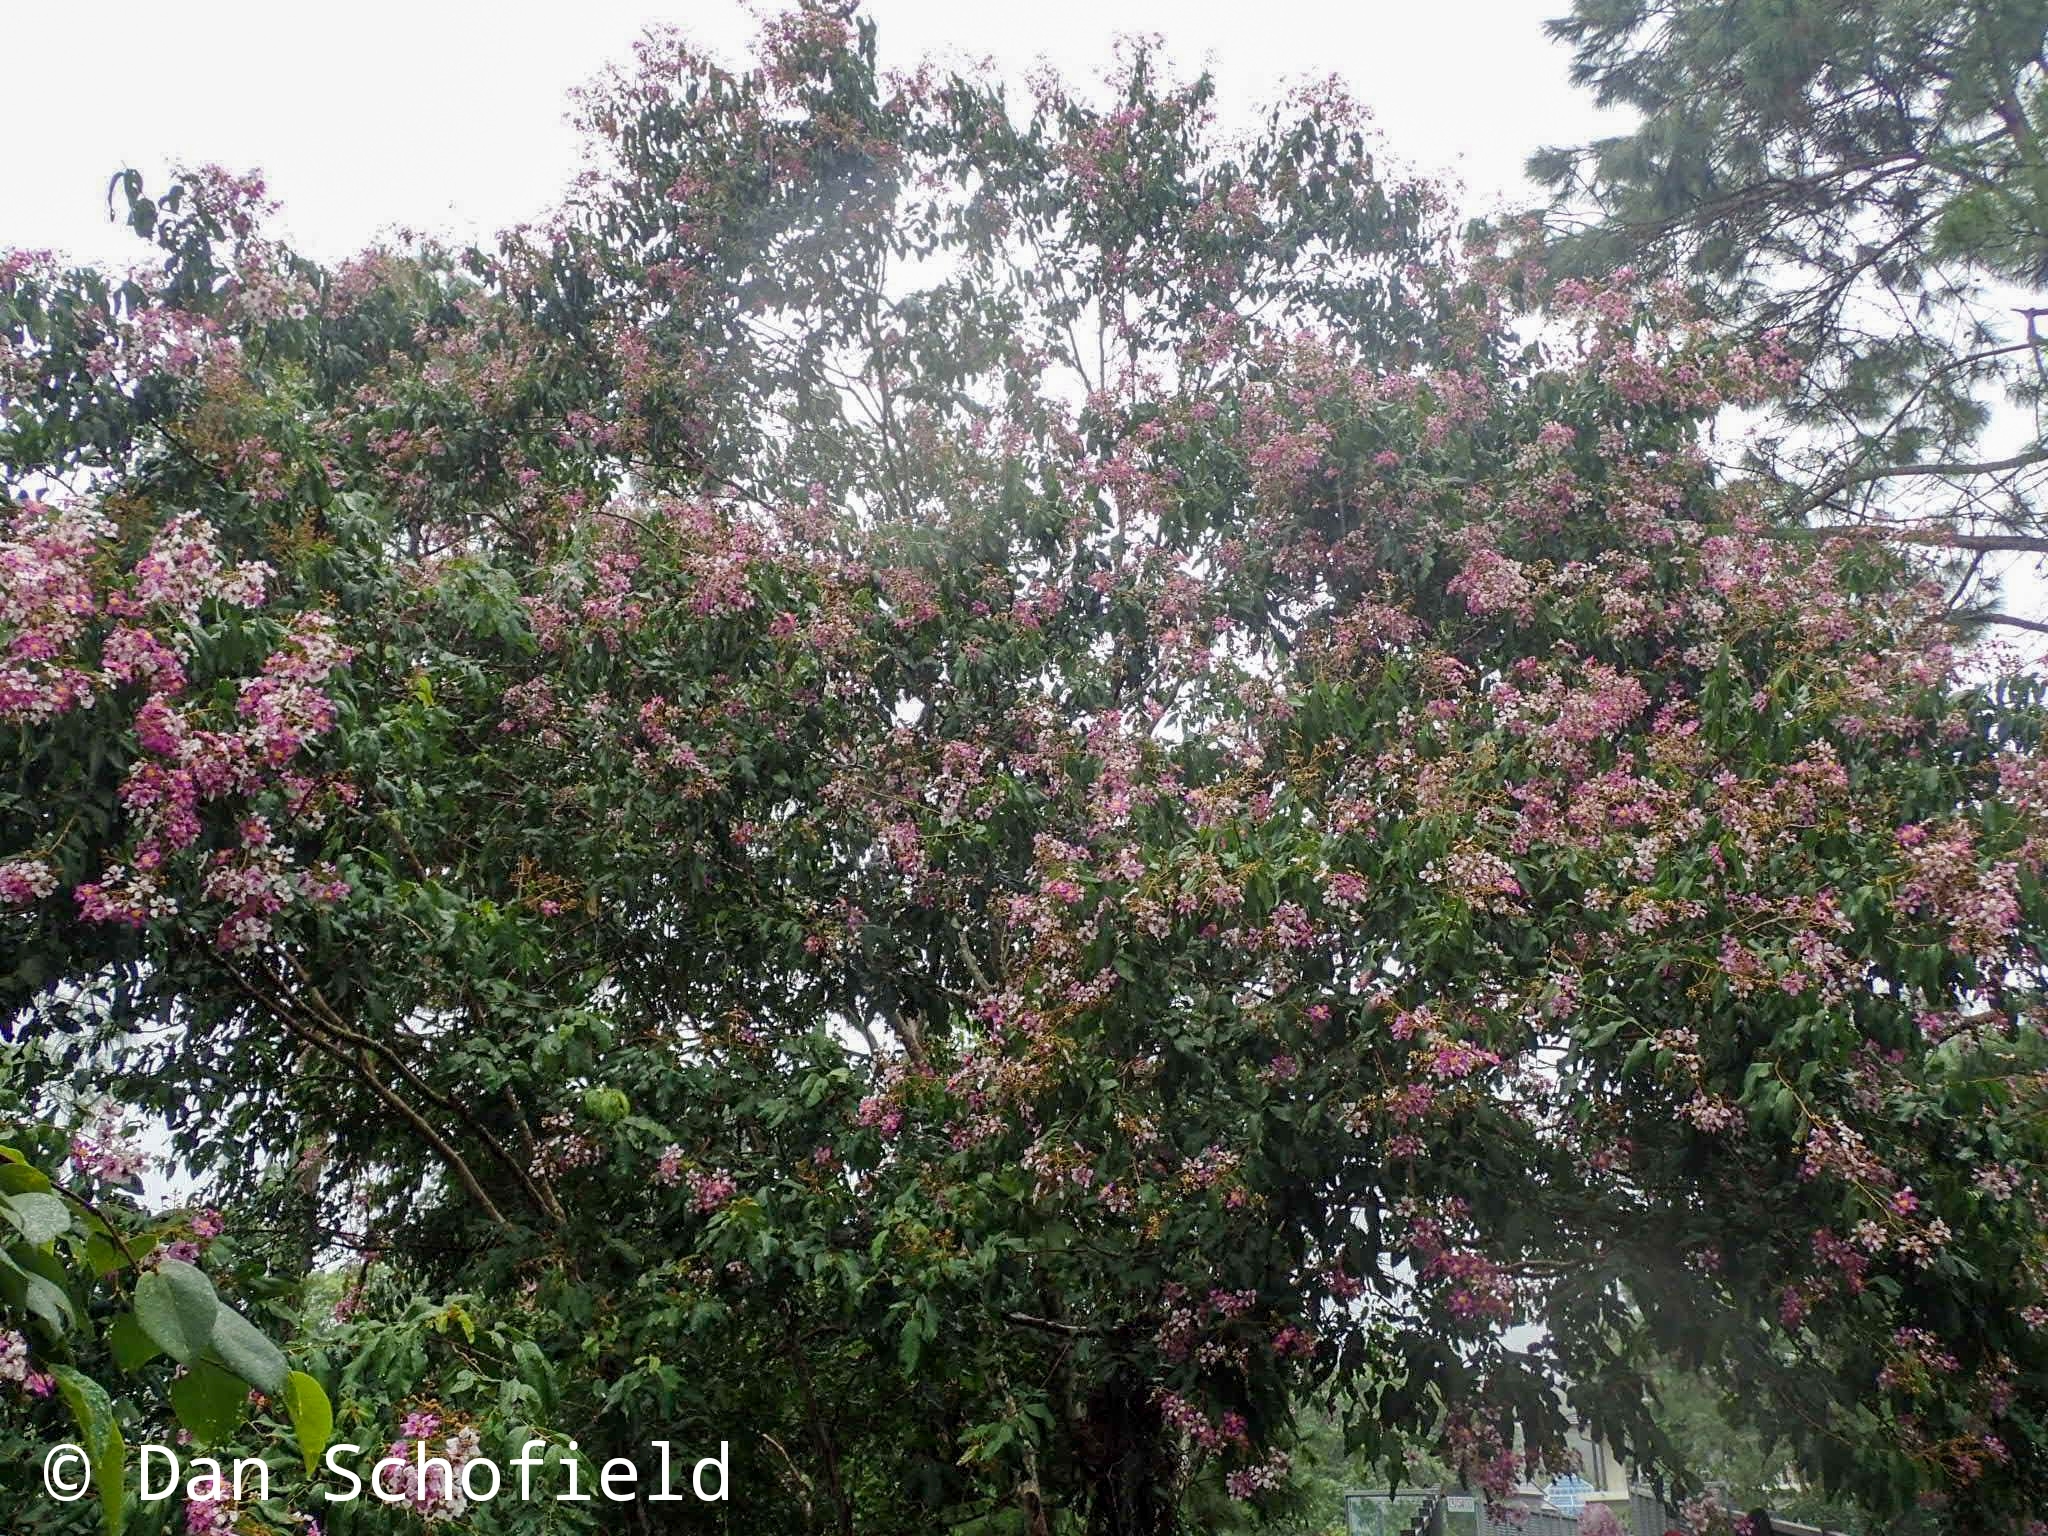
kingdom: Plantae
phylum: Tracheophyta
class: Magnoliopsida
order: Myrtales
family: Lythraceae
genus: Lagerstroemia
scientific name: Lagerstroemia speciosa
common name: Queen's crape-myrtle
